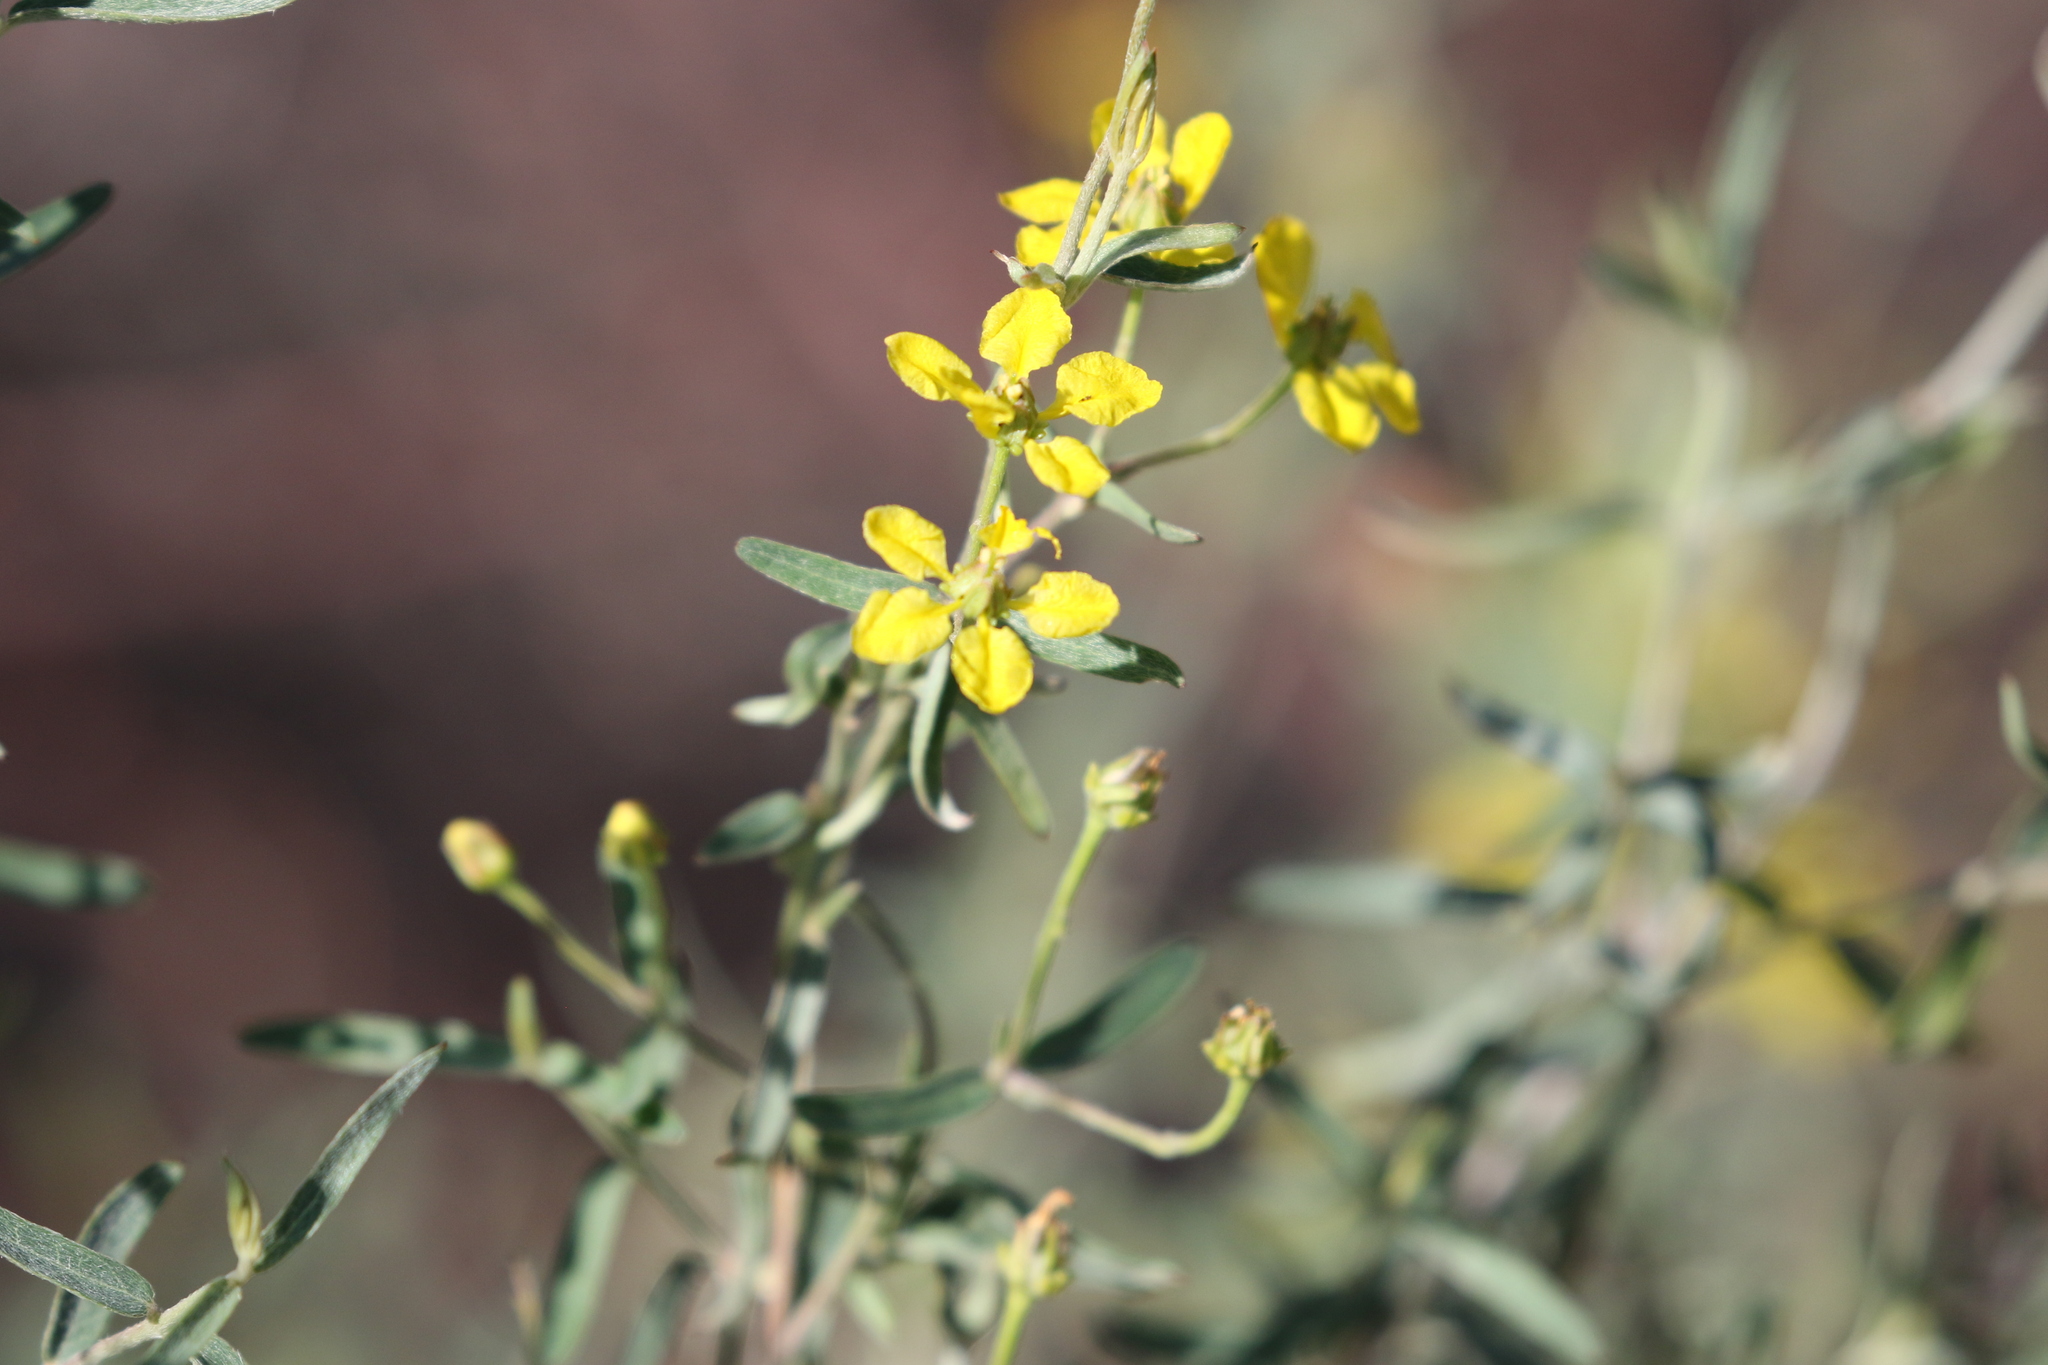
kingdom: Plantae
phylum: Tracheophyta
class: Magnoliopsida
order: Malpighiales
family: Malpighiaceae
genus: Cottsia
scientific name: Cottsia gracilis
